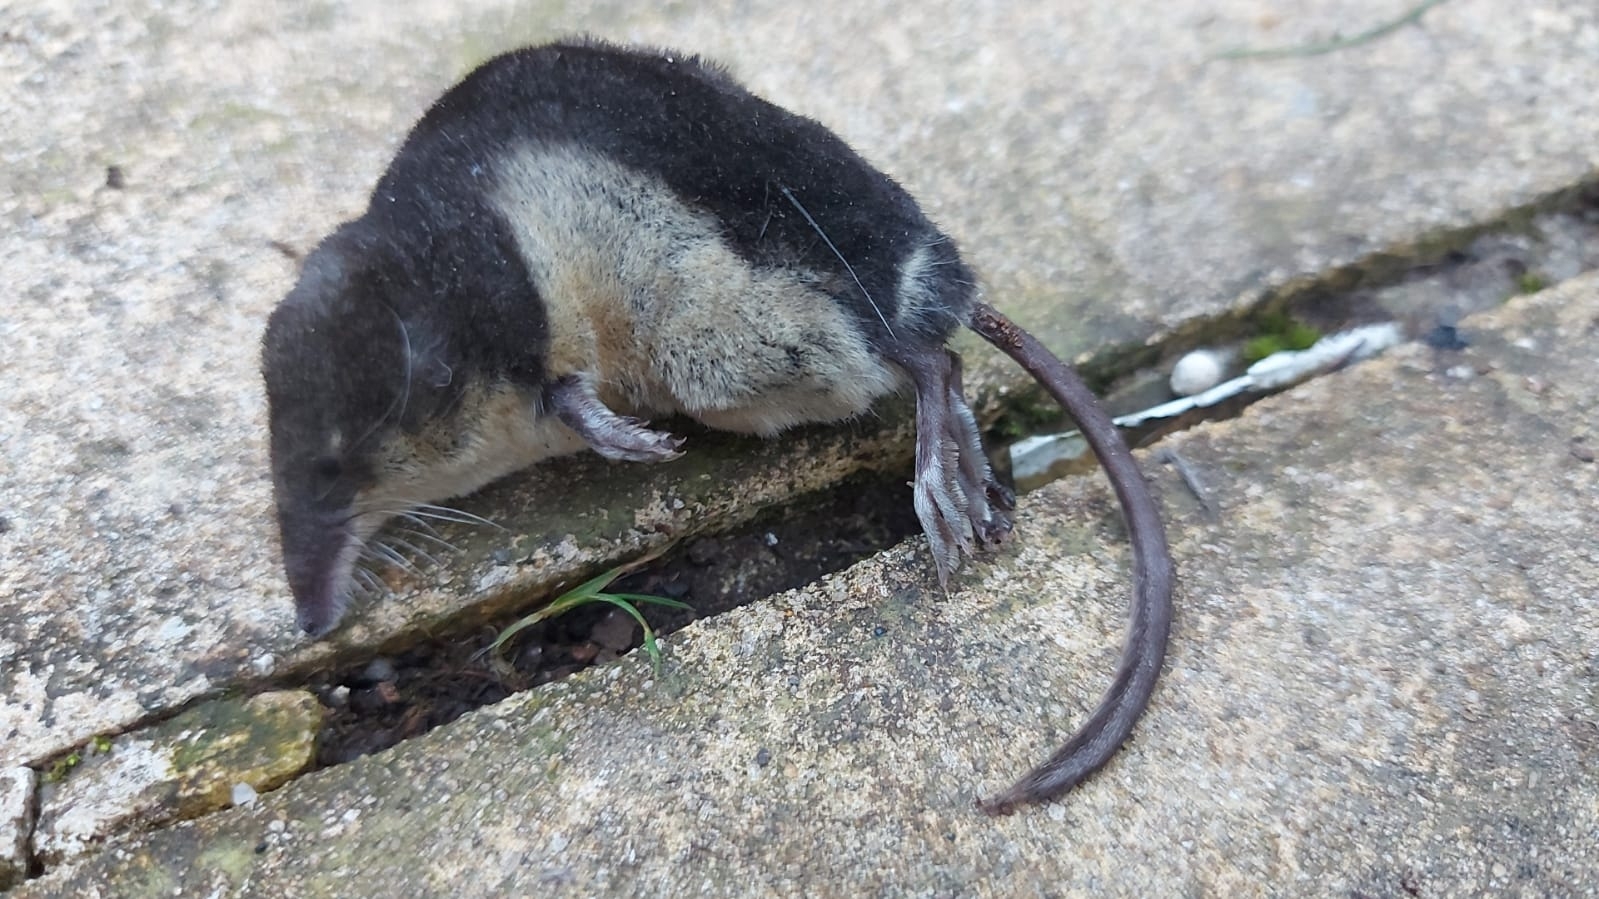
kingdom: Animalia
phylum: Chordata
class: Mammalia
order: Soricomorpha
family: Soricidae
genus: Neomys
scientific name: Neomys fodiens
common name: Eurasian water shrew
